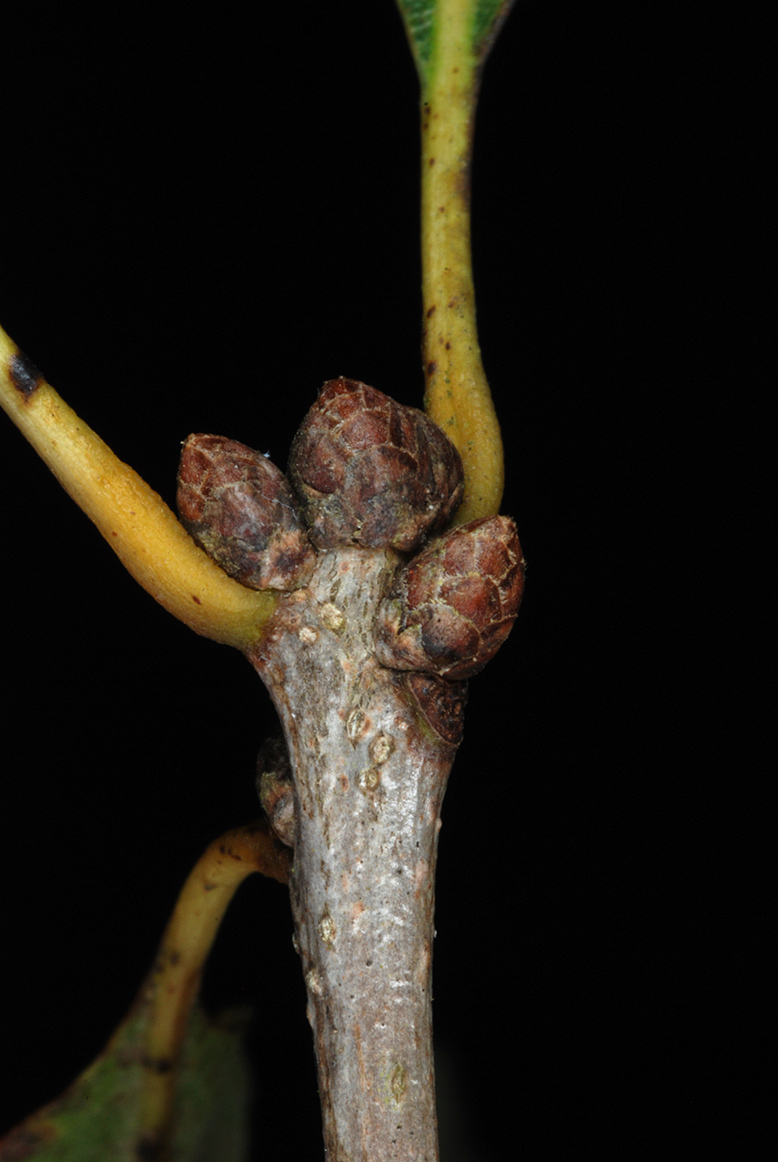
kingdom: Plantae
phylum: Tracheophyta
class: Magnoliopsida
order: Fagales
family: Fagaceae
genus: Quercus
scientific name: Quercus sinuata
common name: Durand oak
